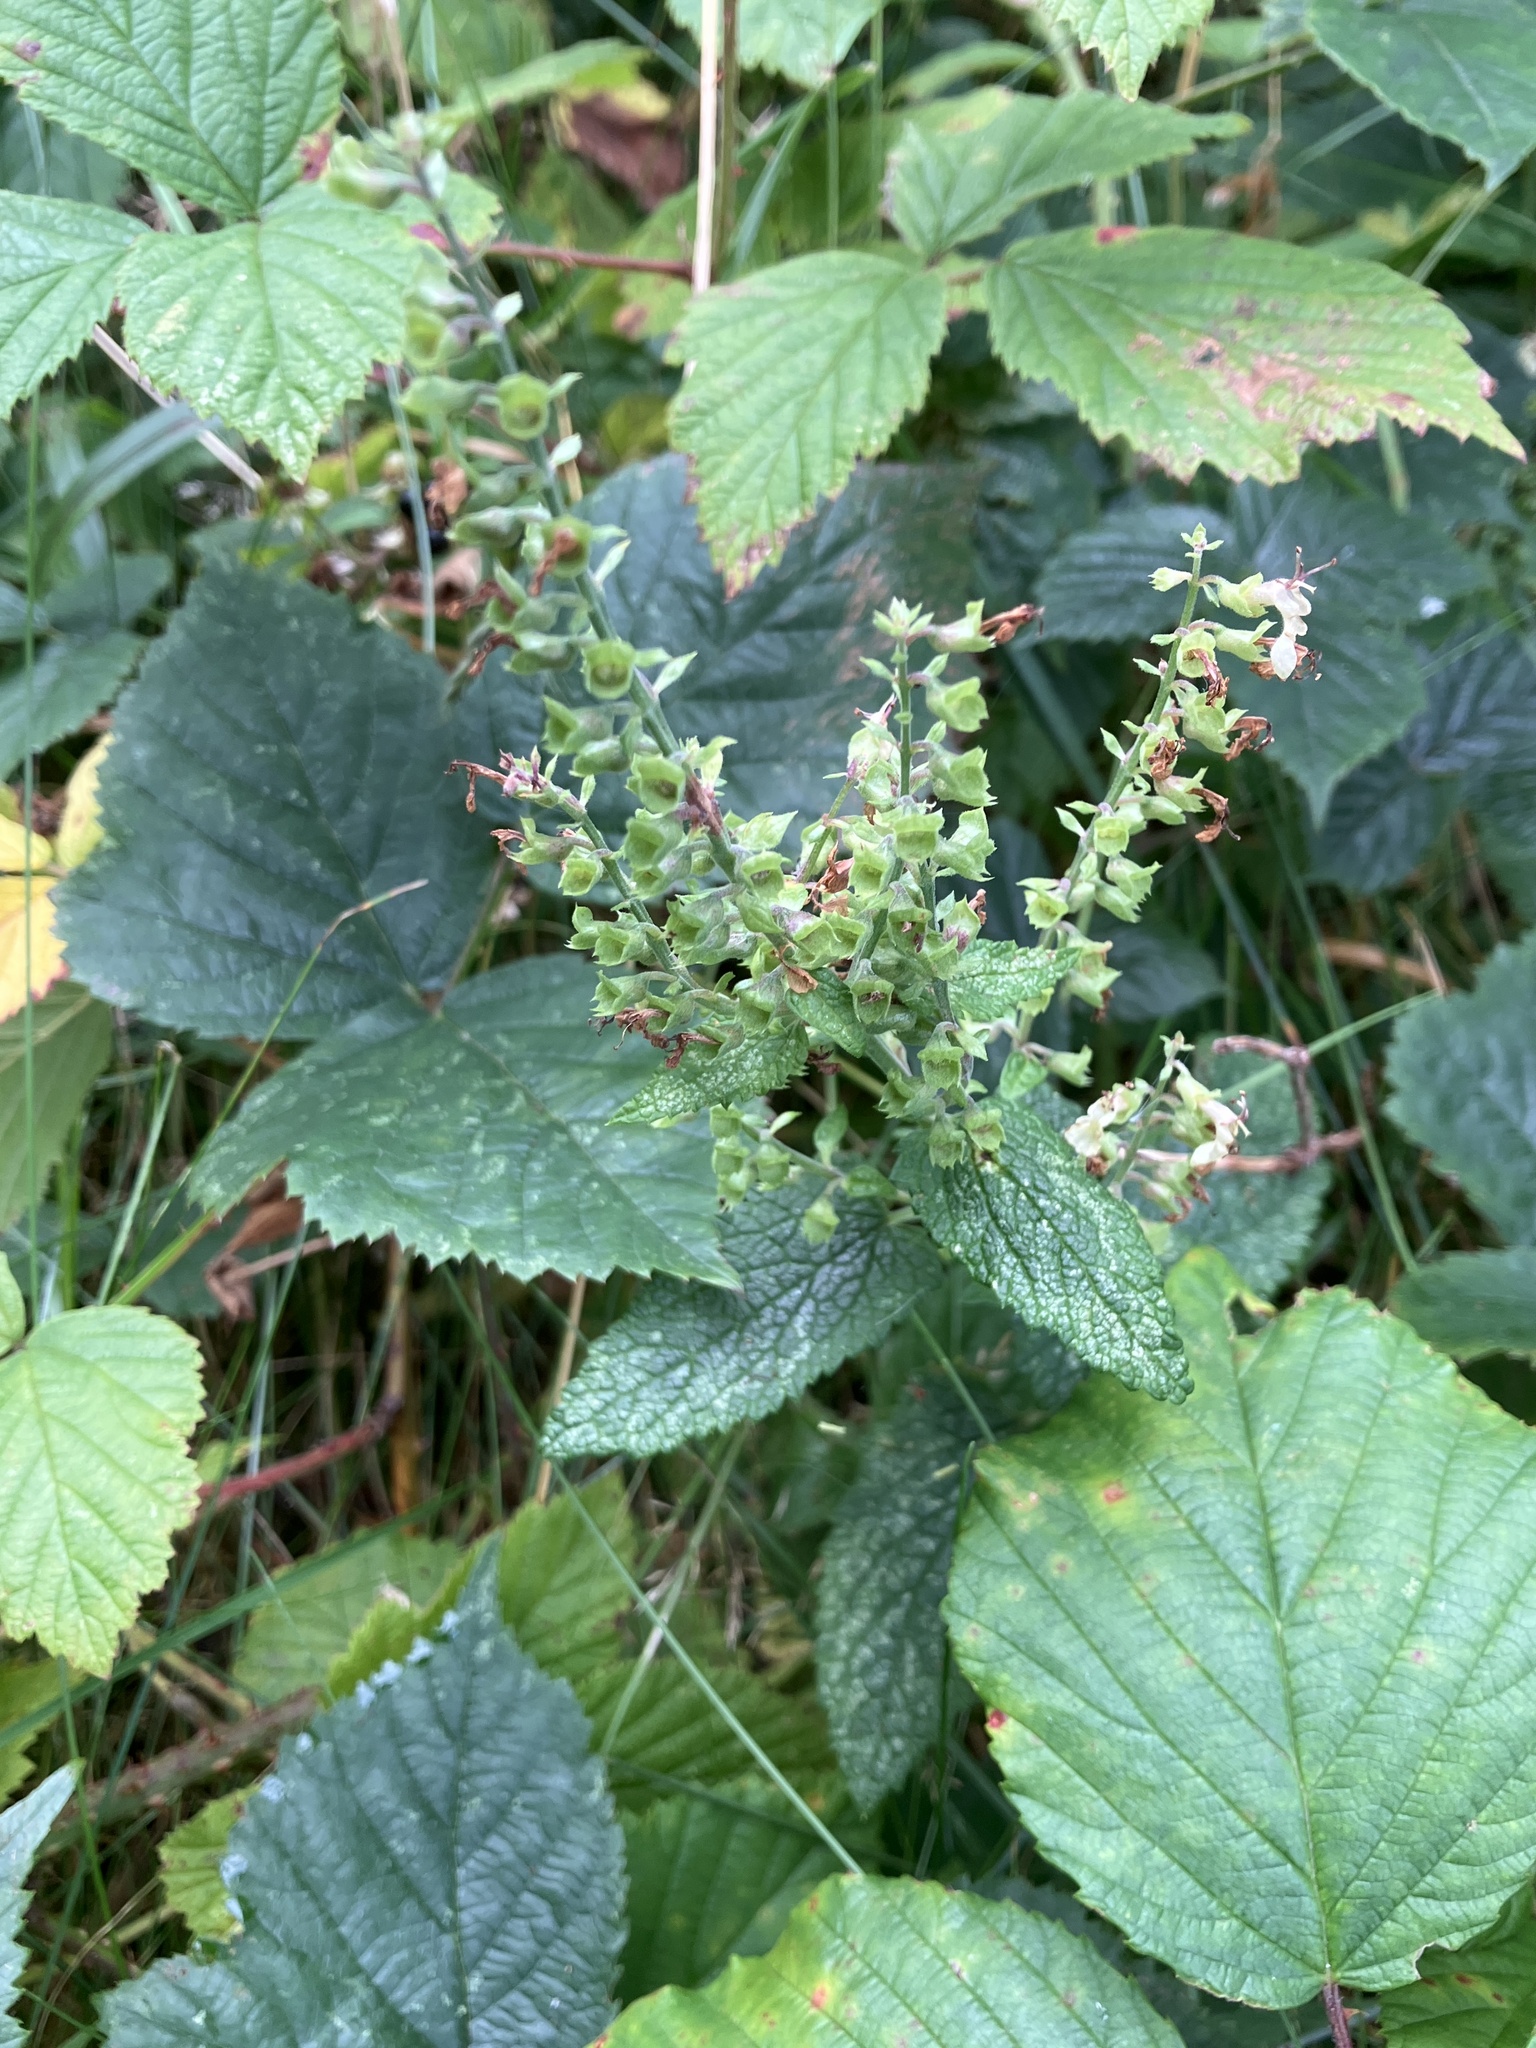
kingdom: Plantae
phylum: Tracheophyta
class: Magnoliopsida
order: Lamiales
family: Lamiaceae
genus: Teucrium
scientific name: Teucrium scorodonia
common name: Woodland germander
